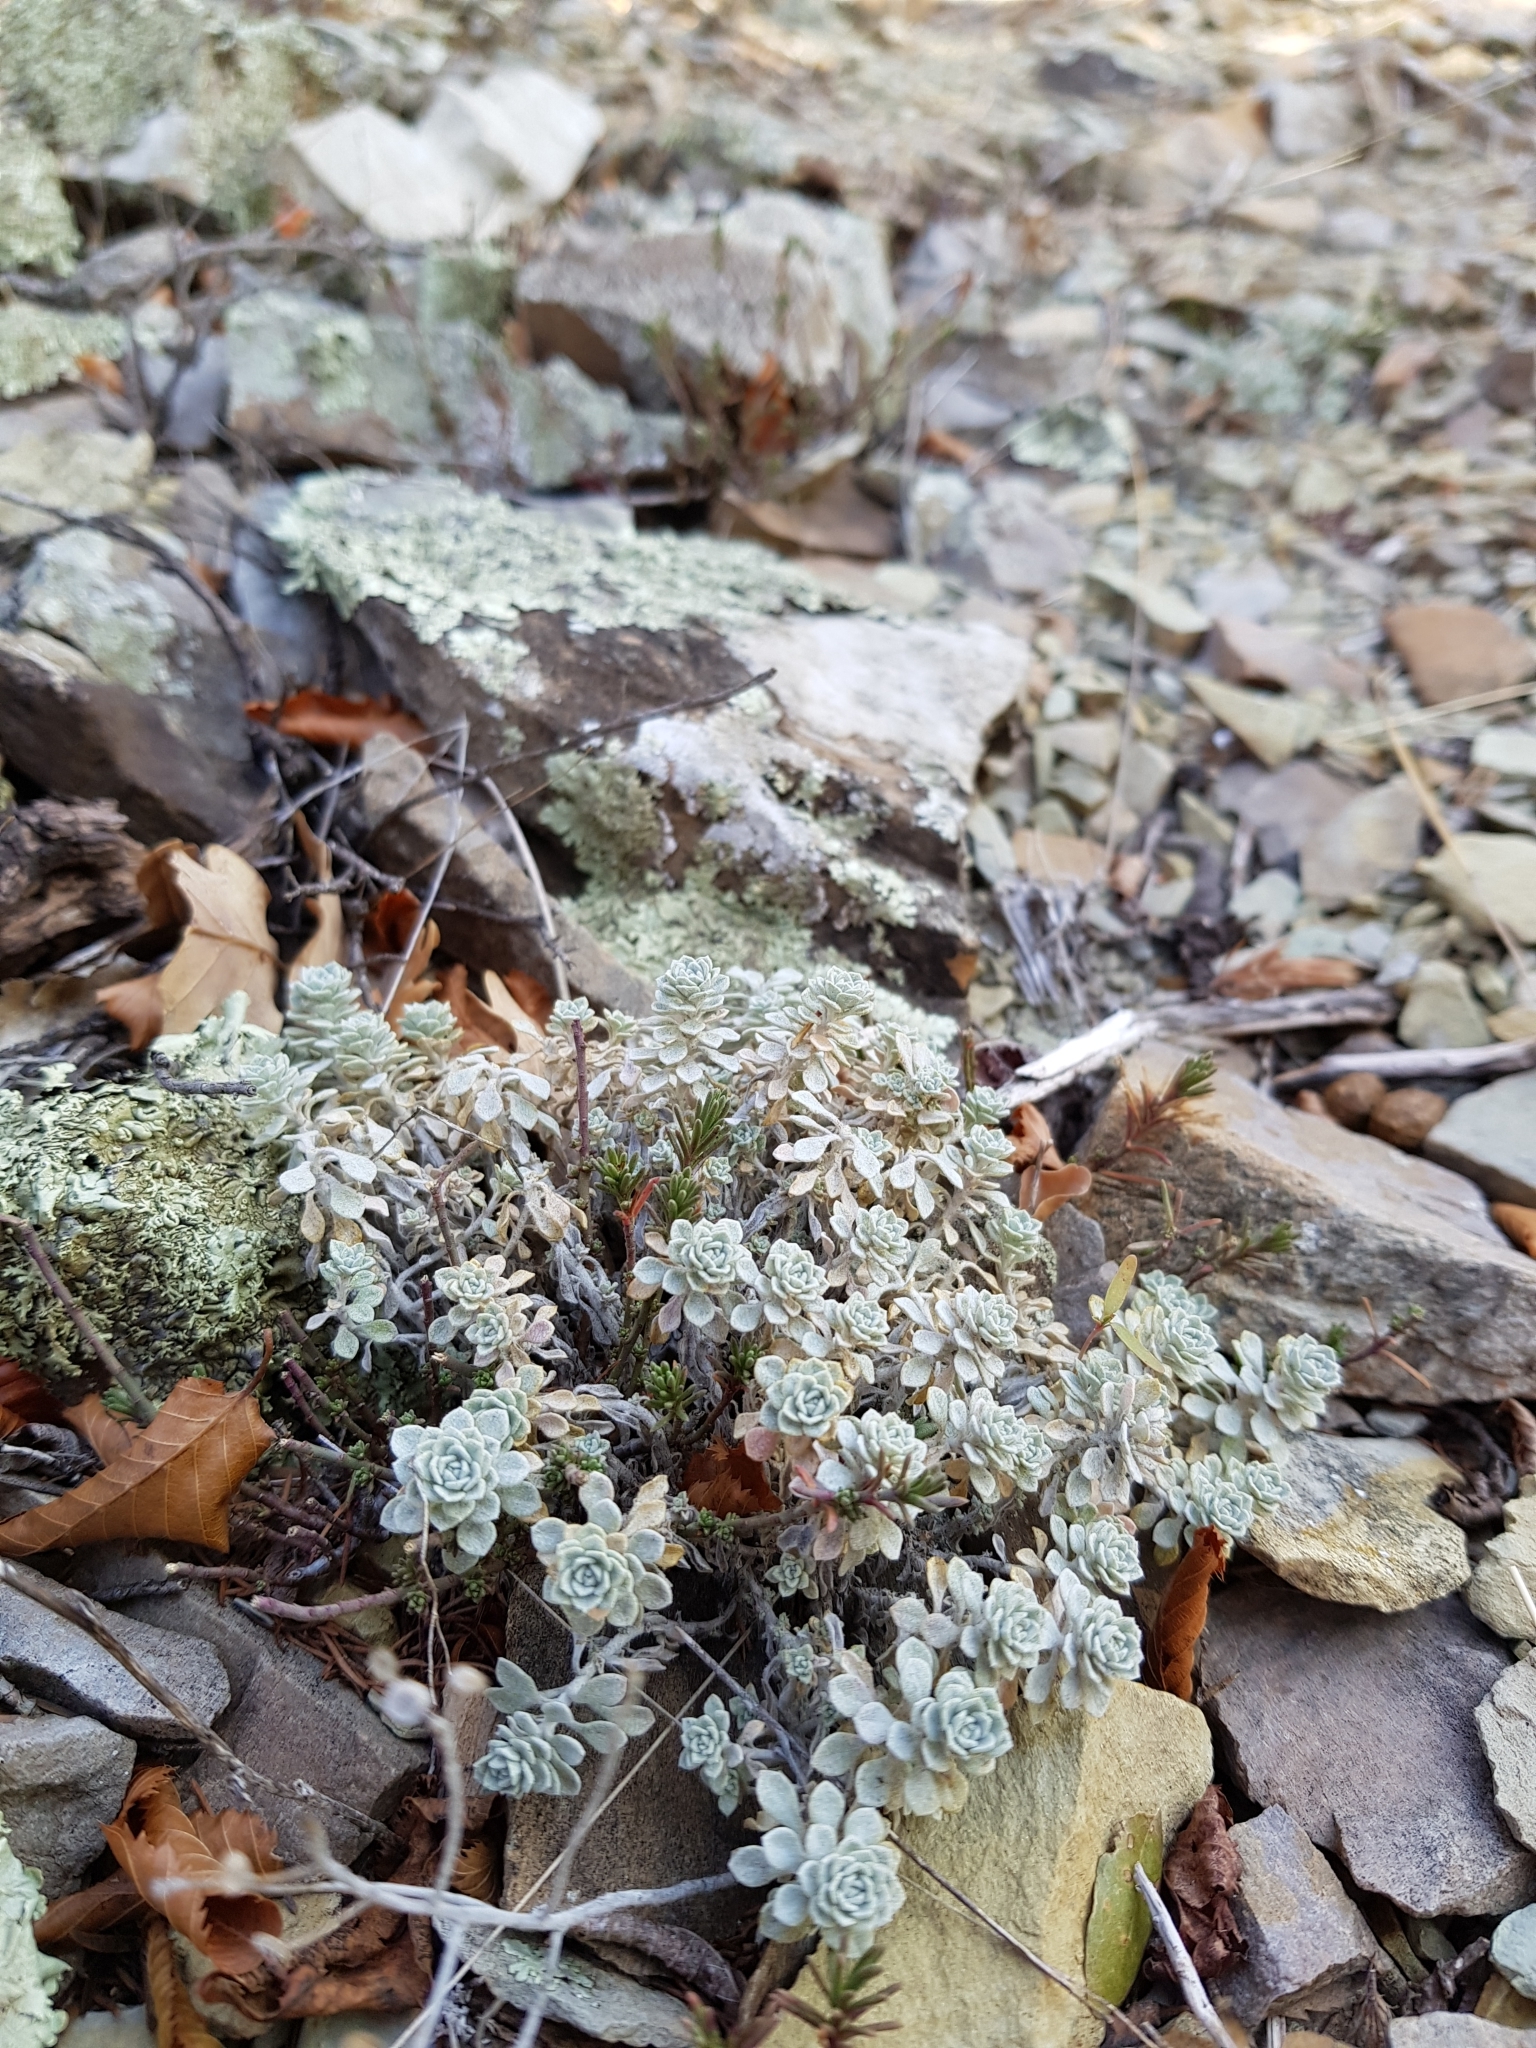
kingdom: Plantae
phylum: Tracheophyta
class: Magnoliopsida
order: Brassicales
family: Brassicaceae
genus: Odontarrhena
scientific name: Odontarrhena obtusifolia
